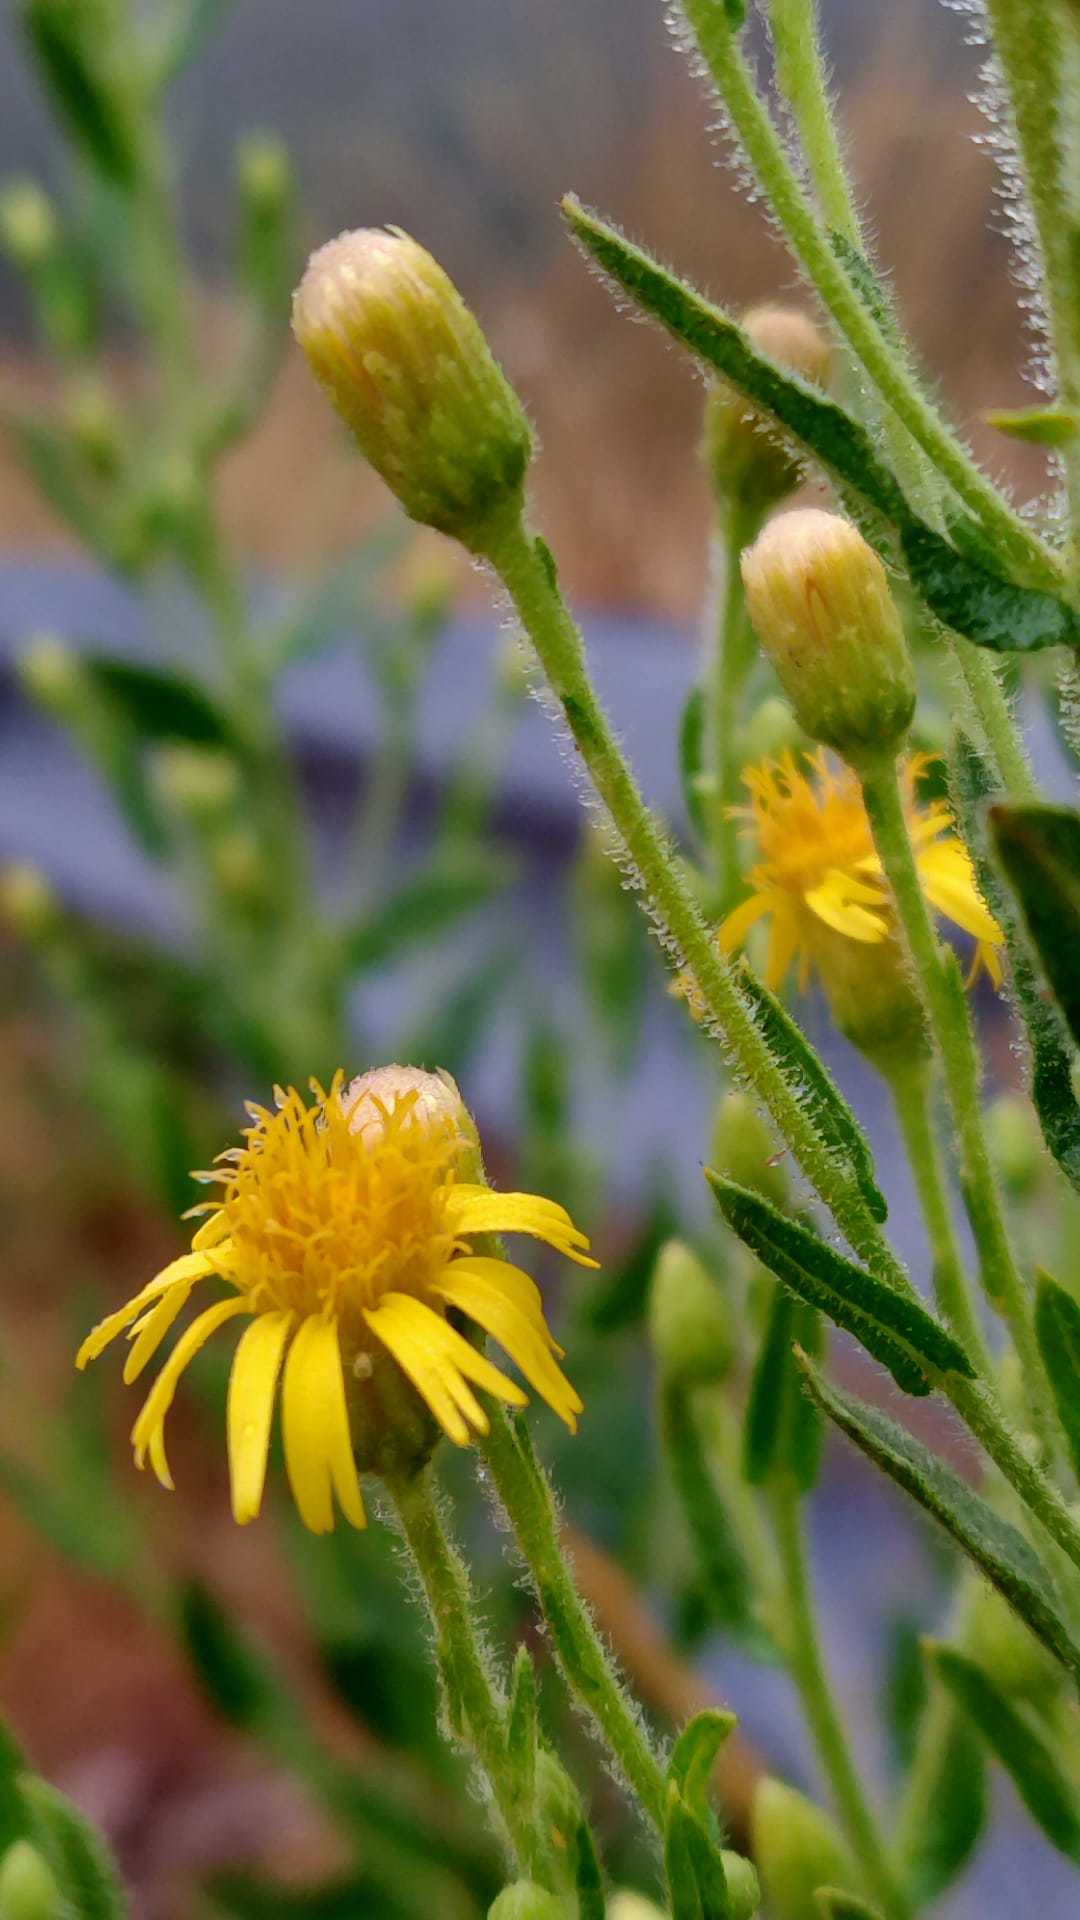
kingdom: Plantae
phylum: Tracheophyta
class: Magnoliopsida
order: Asterales
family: Asteraceae
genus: Dittrichia
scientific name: Dittrichia viscosa
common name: Woody fleabane
